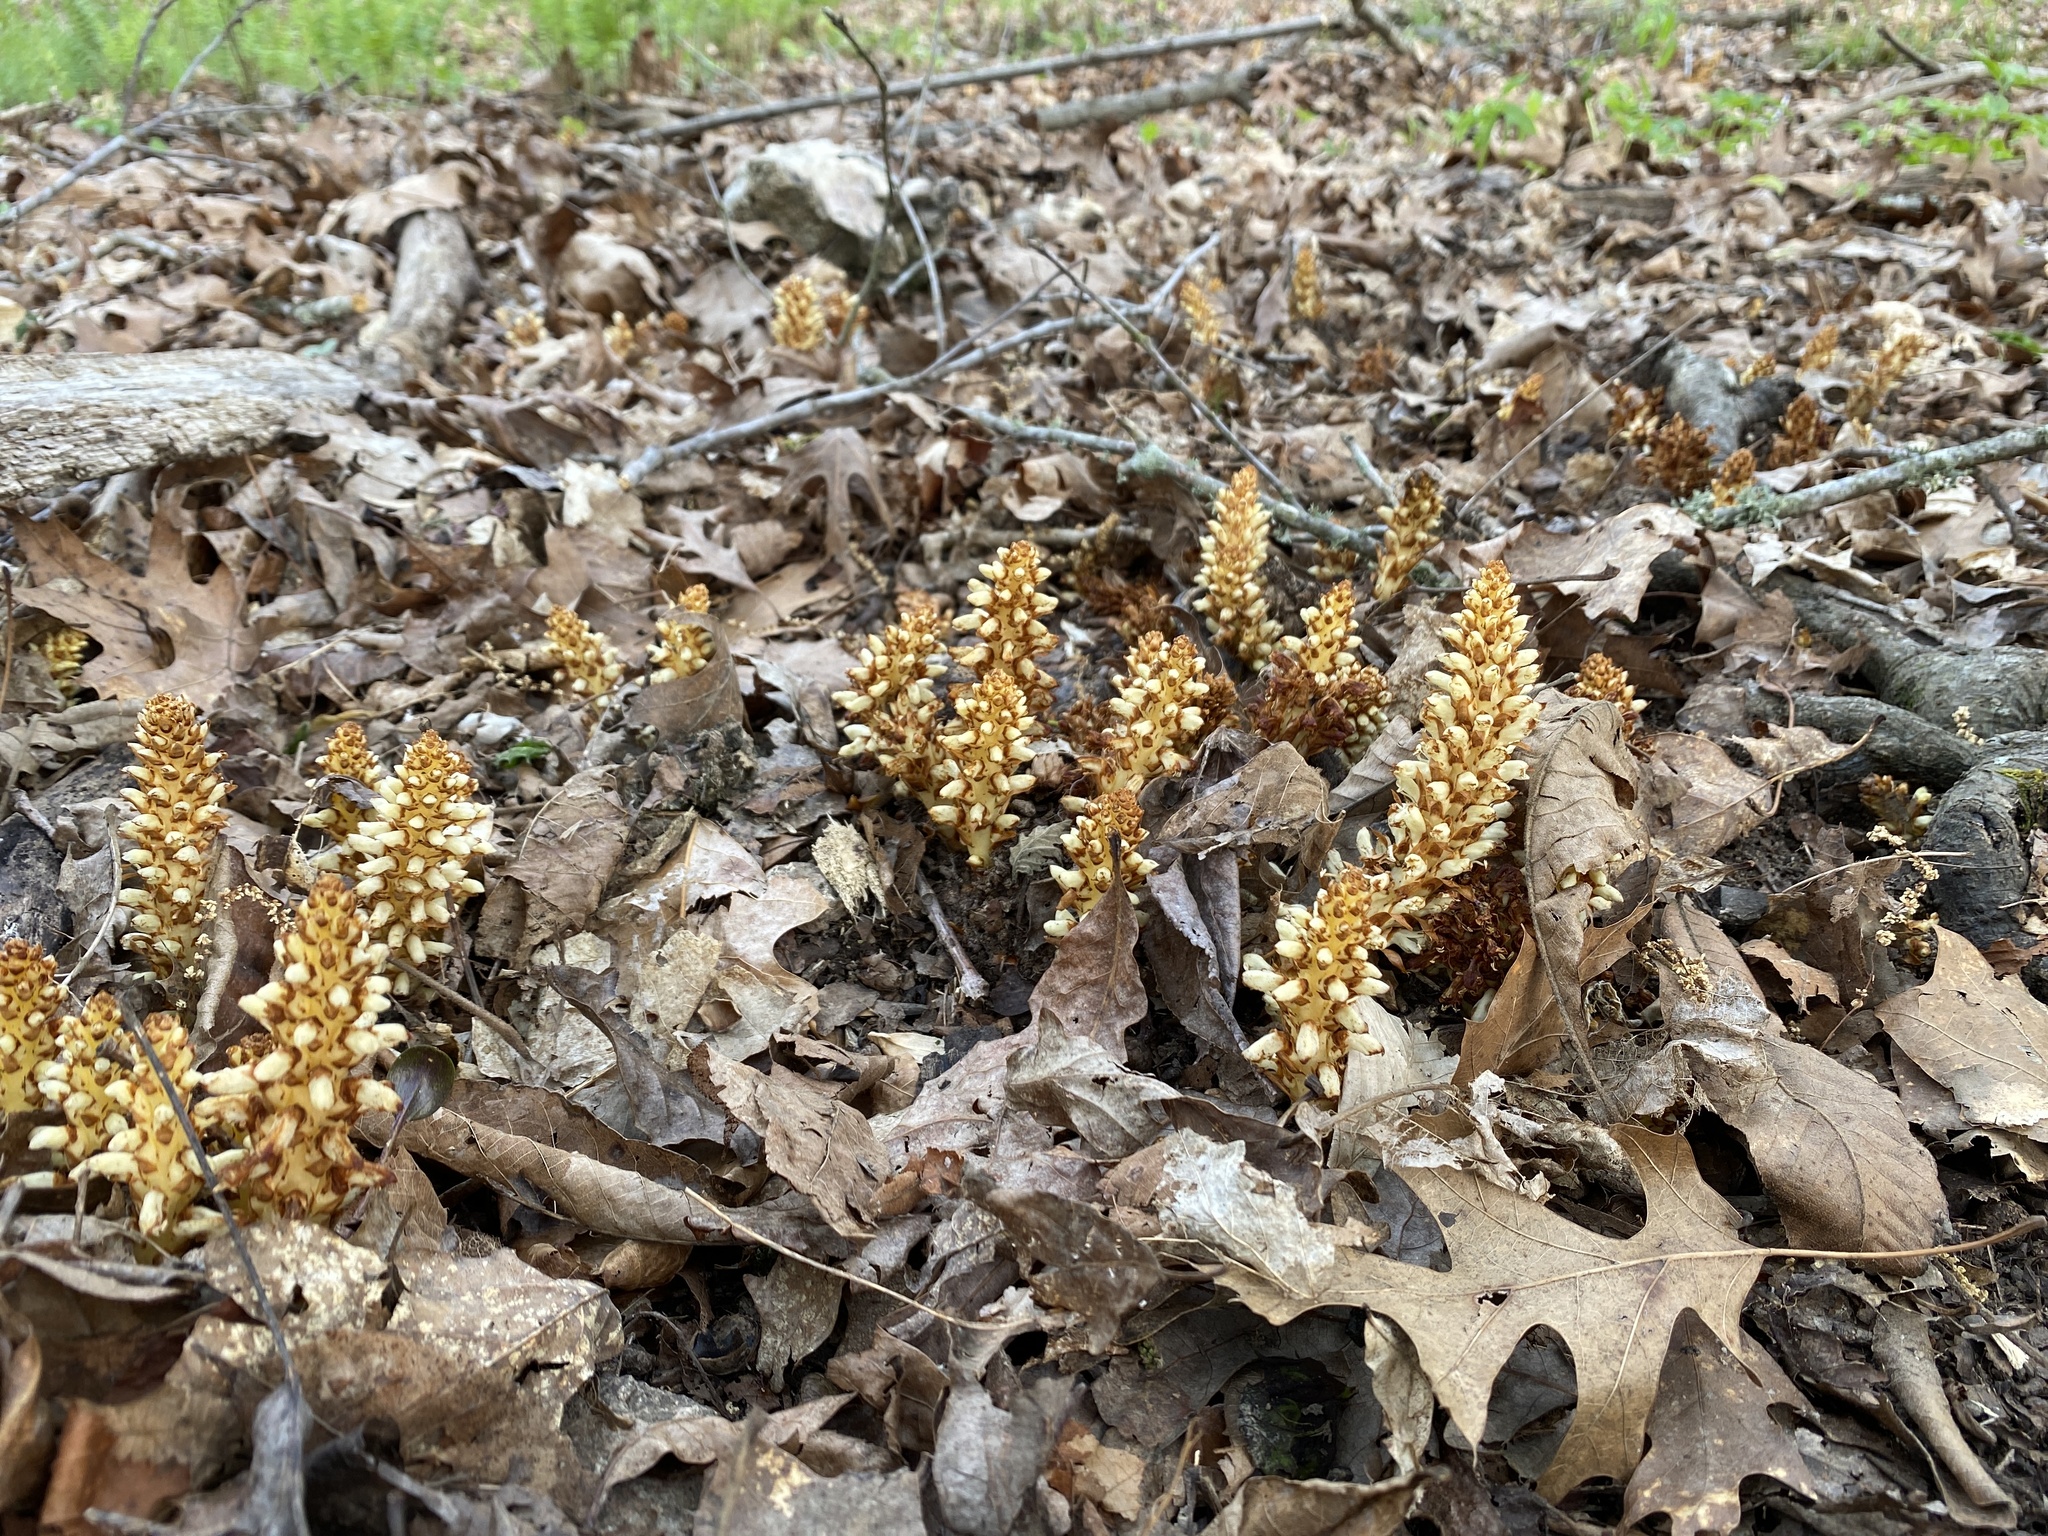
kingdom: Plantae
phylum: Tracheophyta
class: Magnoliopsida
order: Lamiales
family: Orobanchaceae
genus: Conopholis
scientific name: Conopholis americana
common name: American cancer-root
